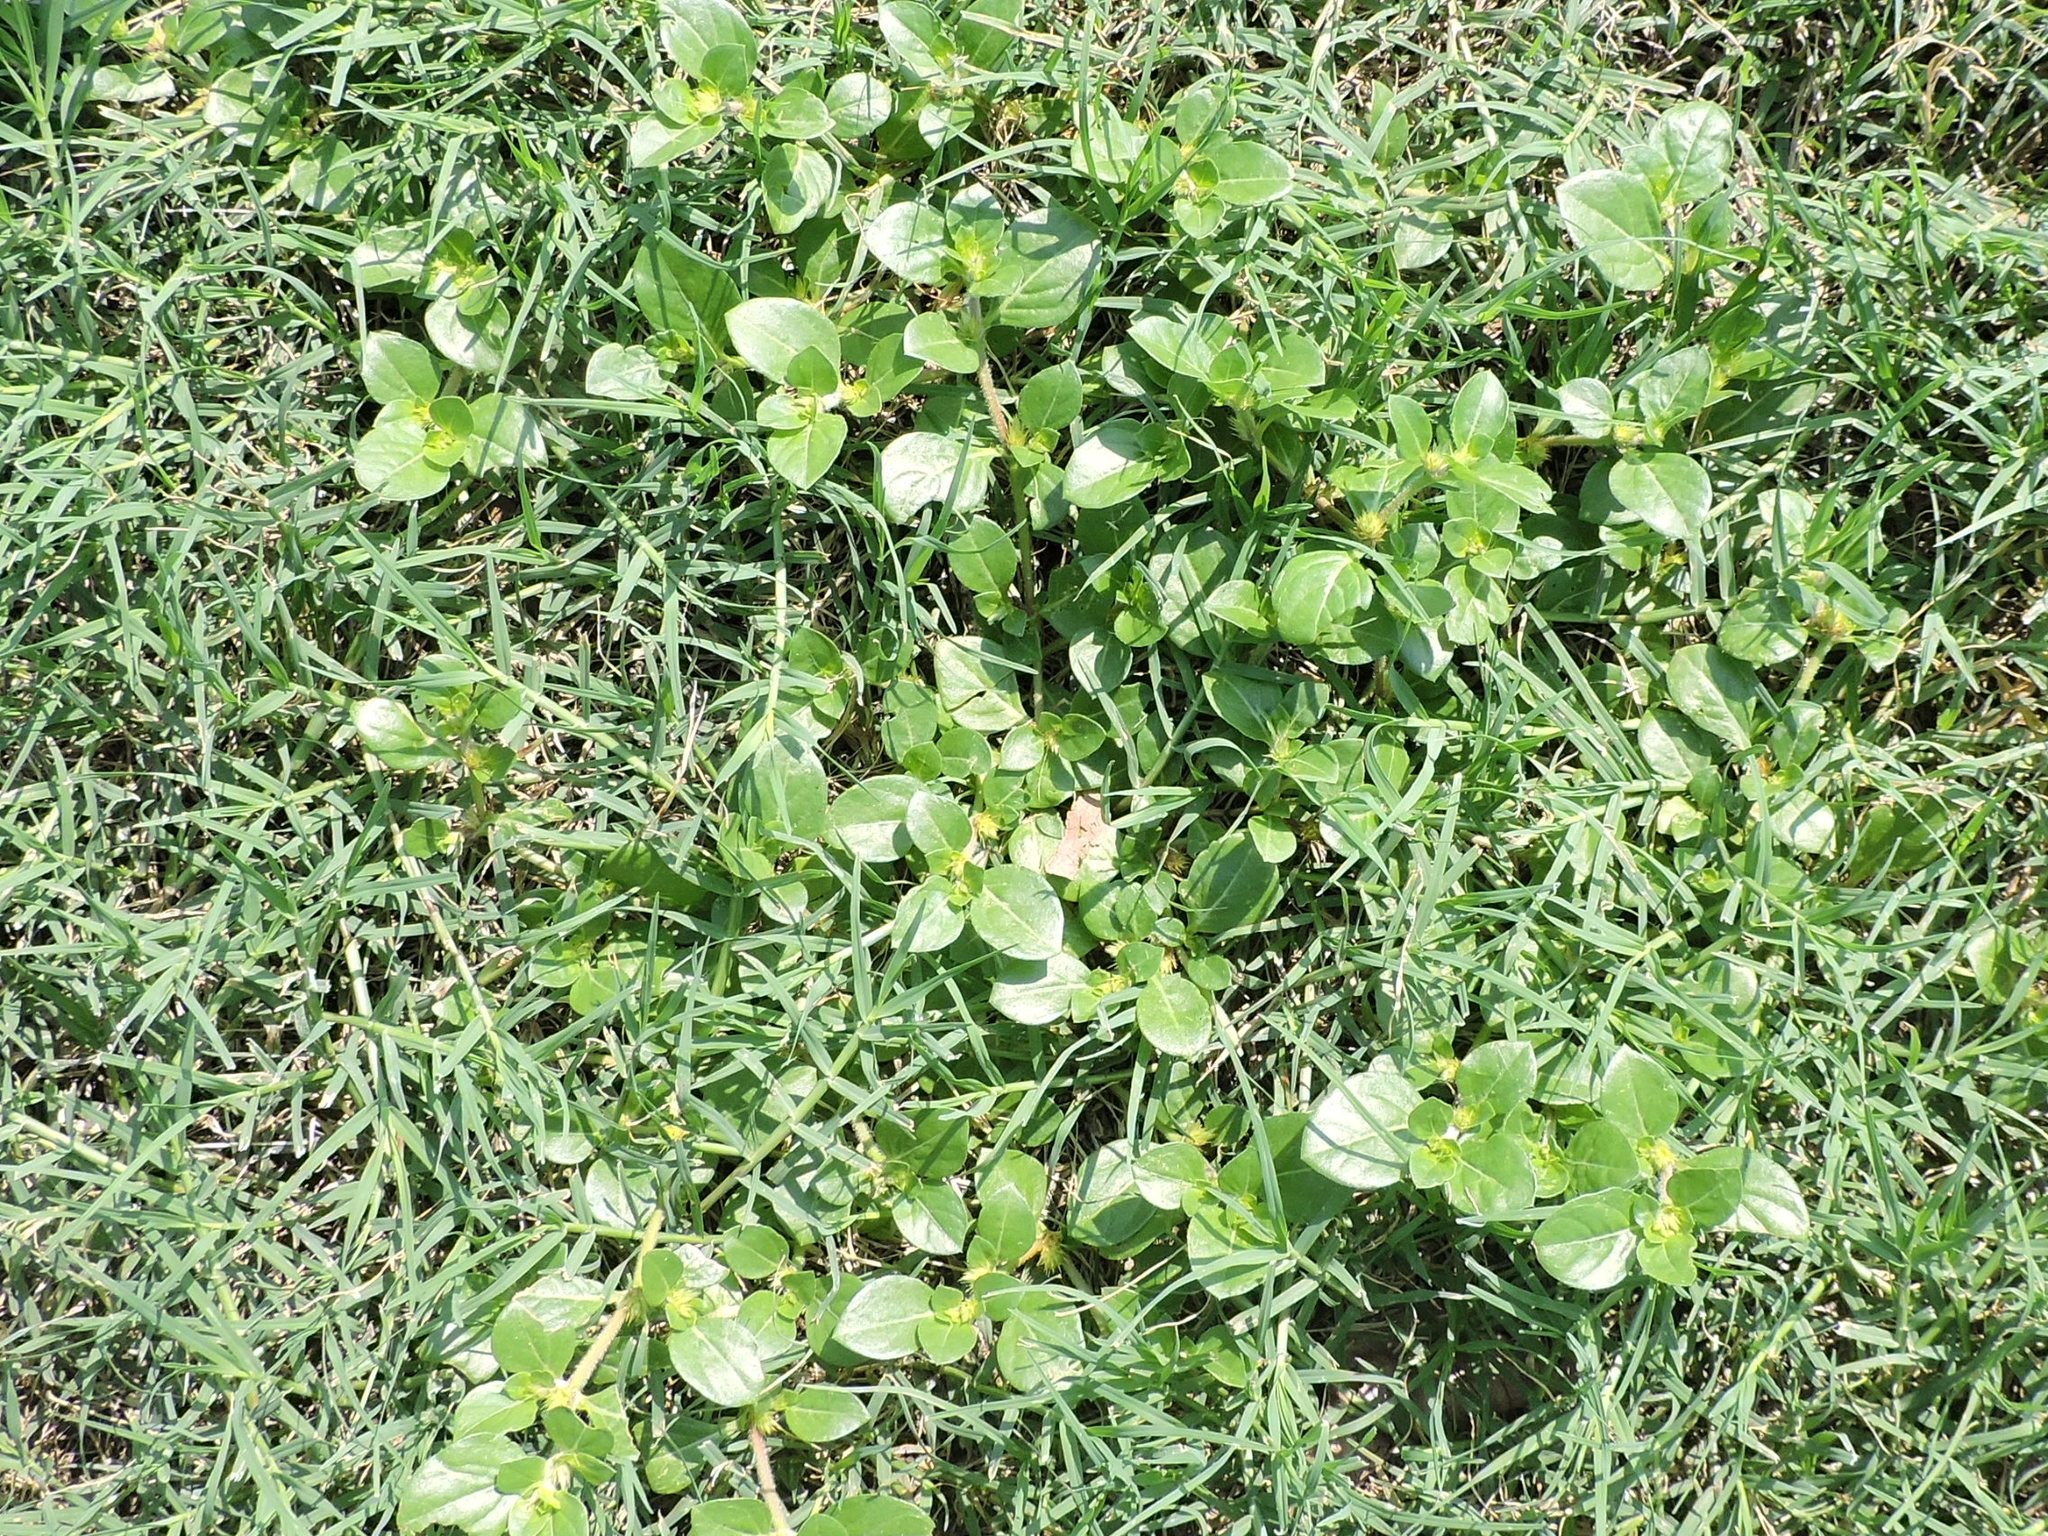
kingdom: Plantae
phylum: Tracheophyta
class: Magnoliopsida
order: Caryophyllales
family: Amaranthaceae
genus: Alternanthera
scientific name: Alternanthera pungens
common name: Khakiweed
